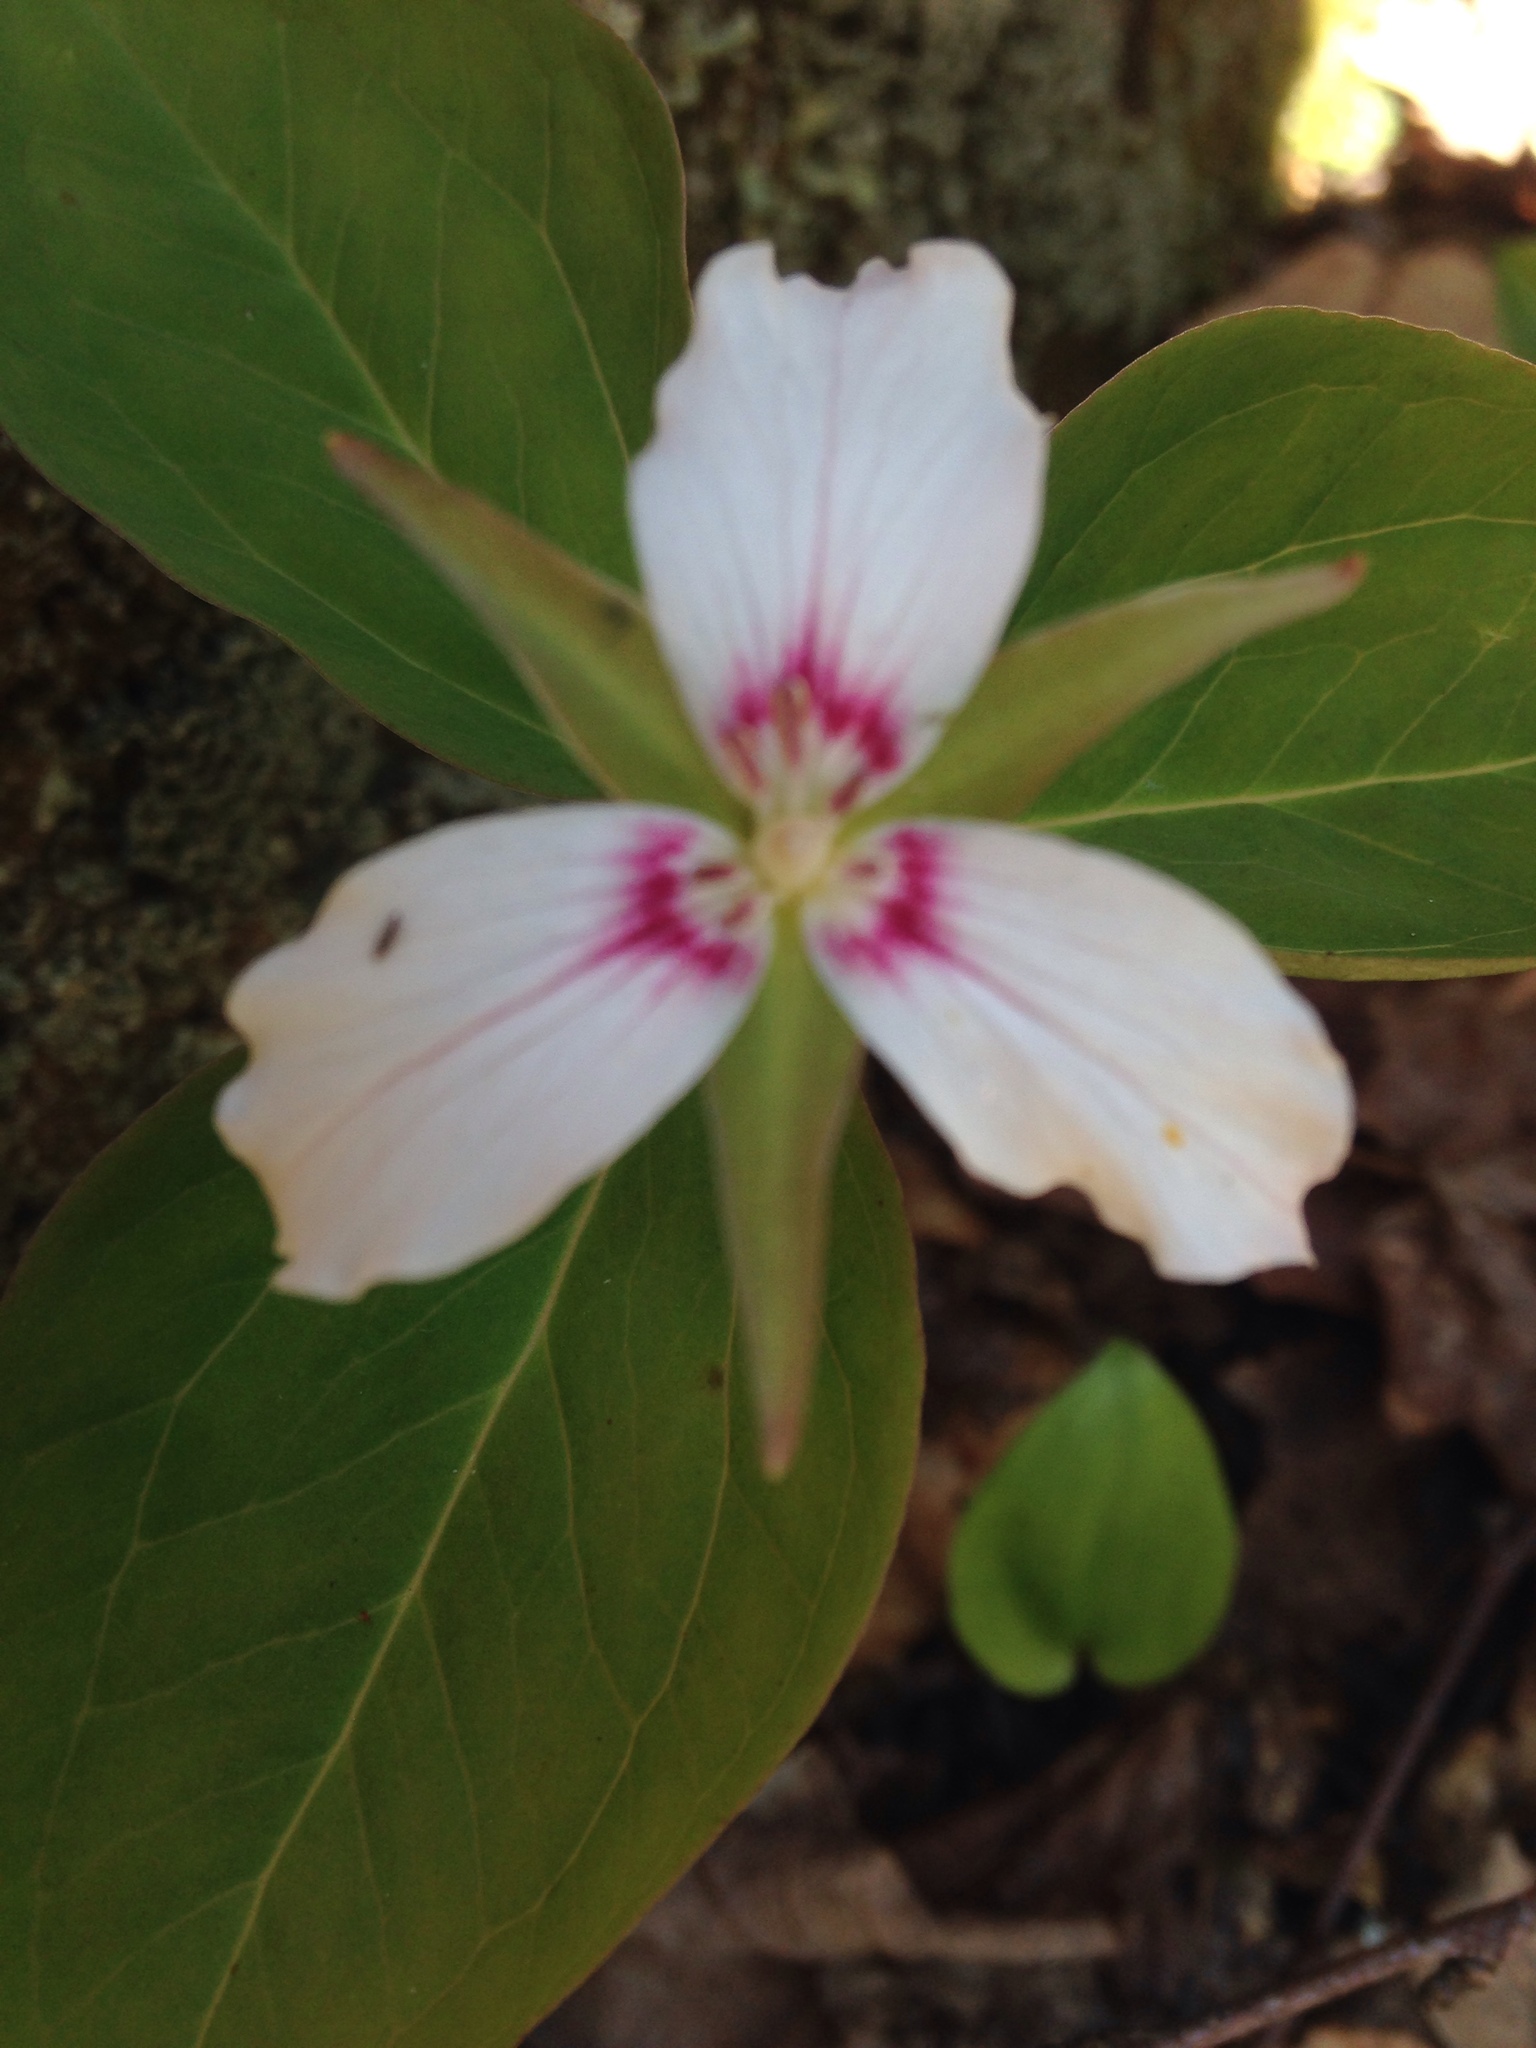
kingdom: Plantae
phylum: Tracheophyta
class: Liliopsida
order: Liliales
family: Melanthiaceae
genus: Trillium
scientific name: Trillium undulatum
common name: Paint trillium
